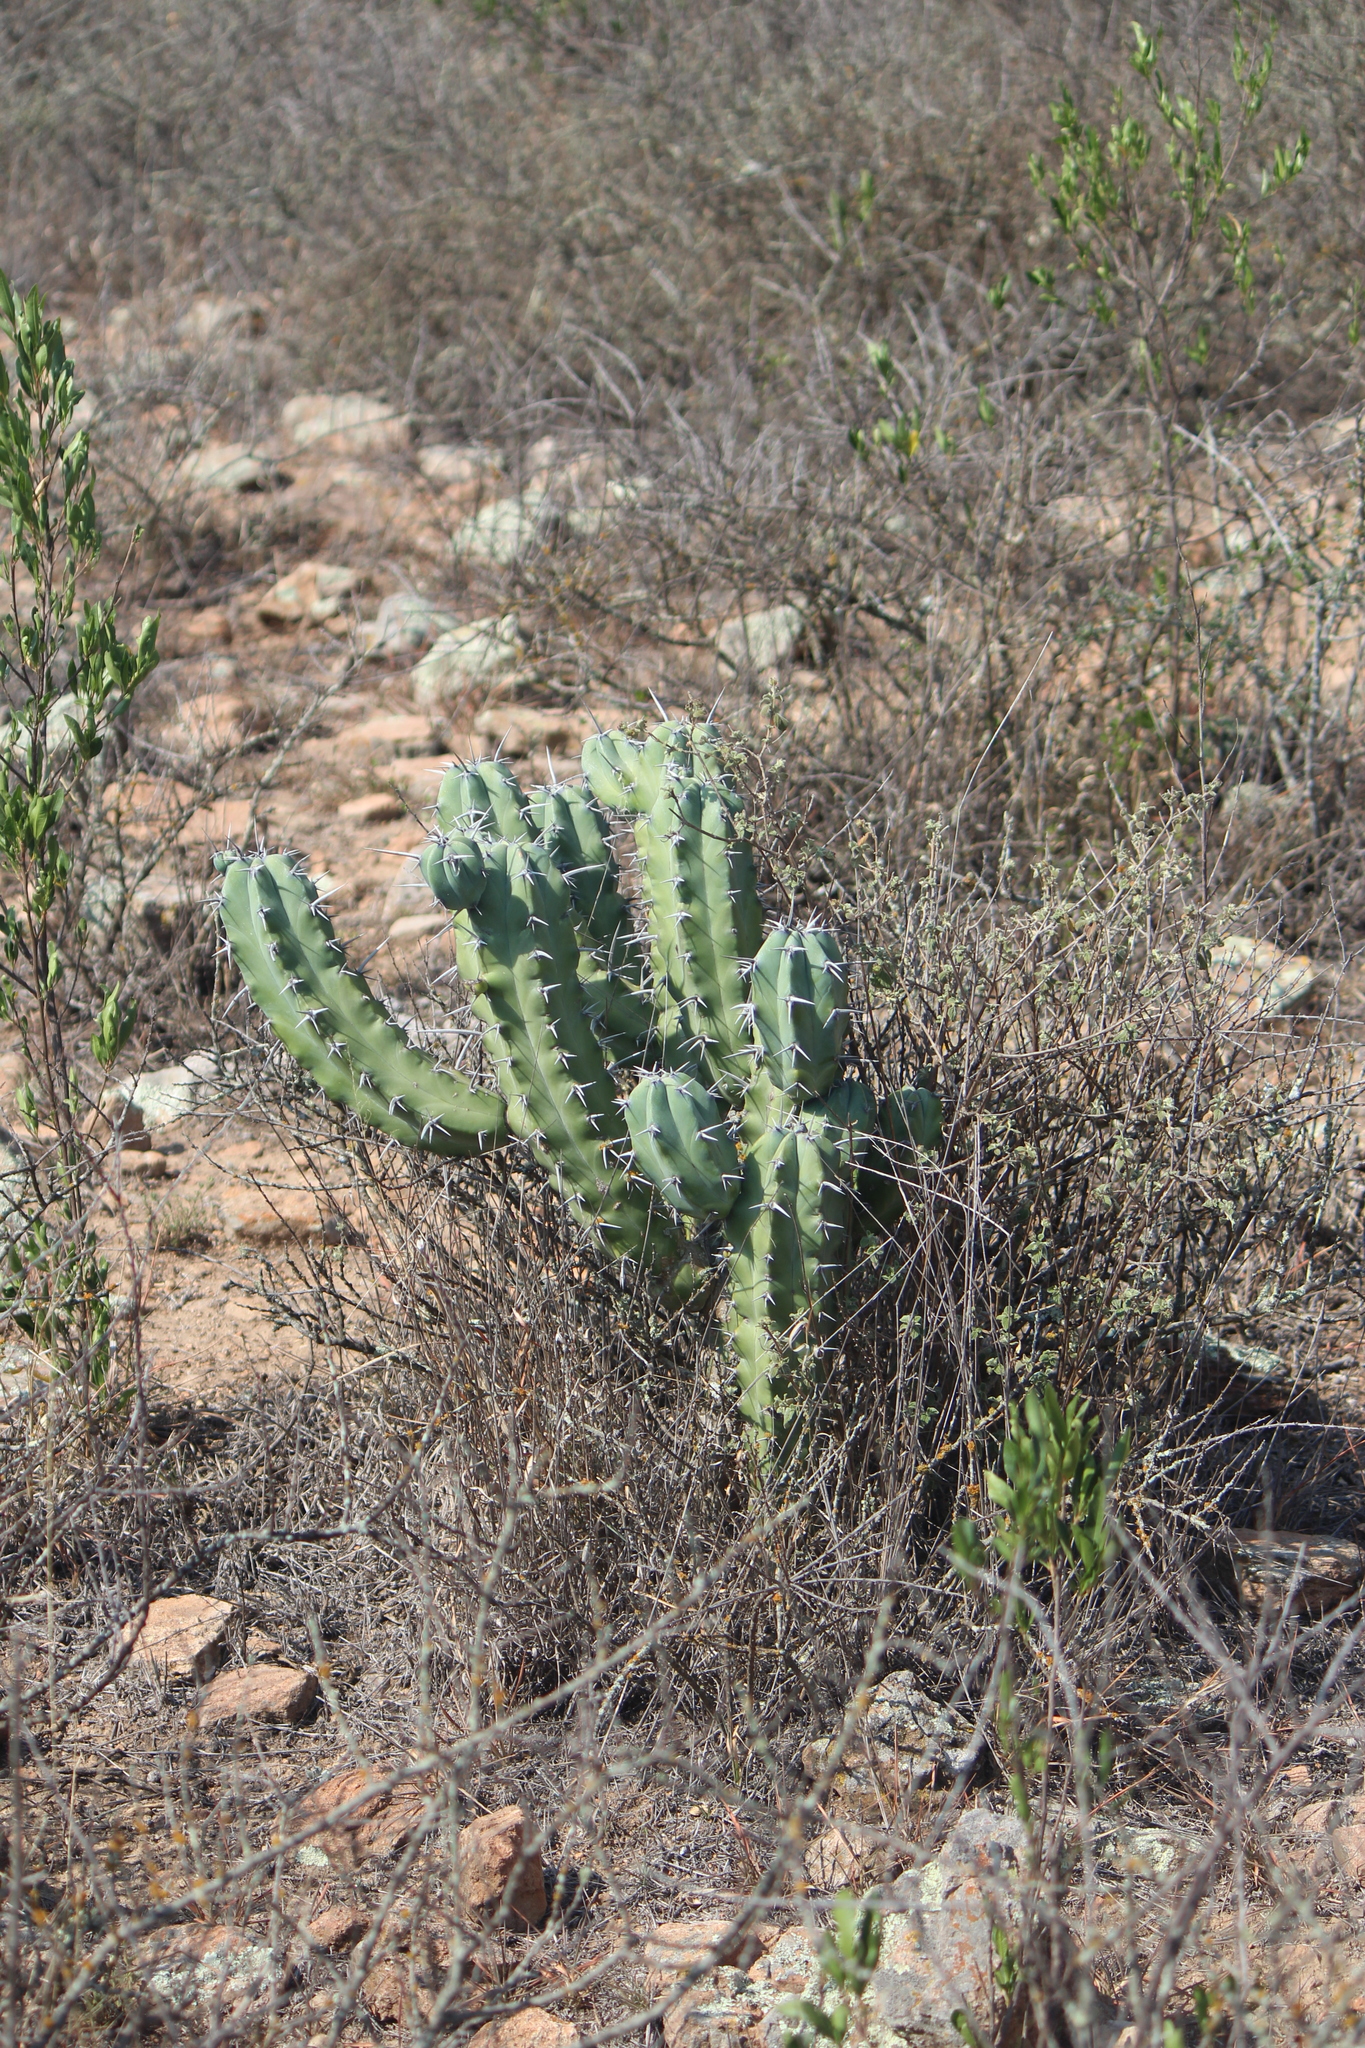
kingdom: Plantae
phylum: Tracheophyta
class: Magnoliopsida
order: Caryophyllales
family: Cactaceae
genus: Myrtillocactus
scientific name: Myrtillocactus geometrizans
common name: Bilberry cactus
